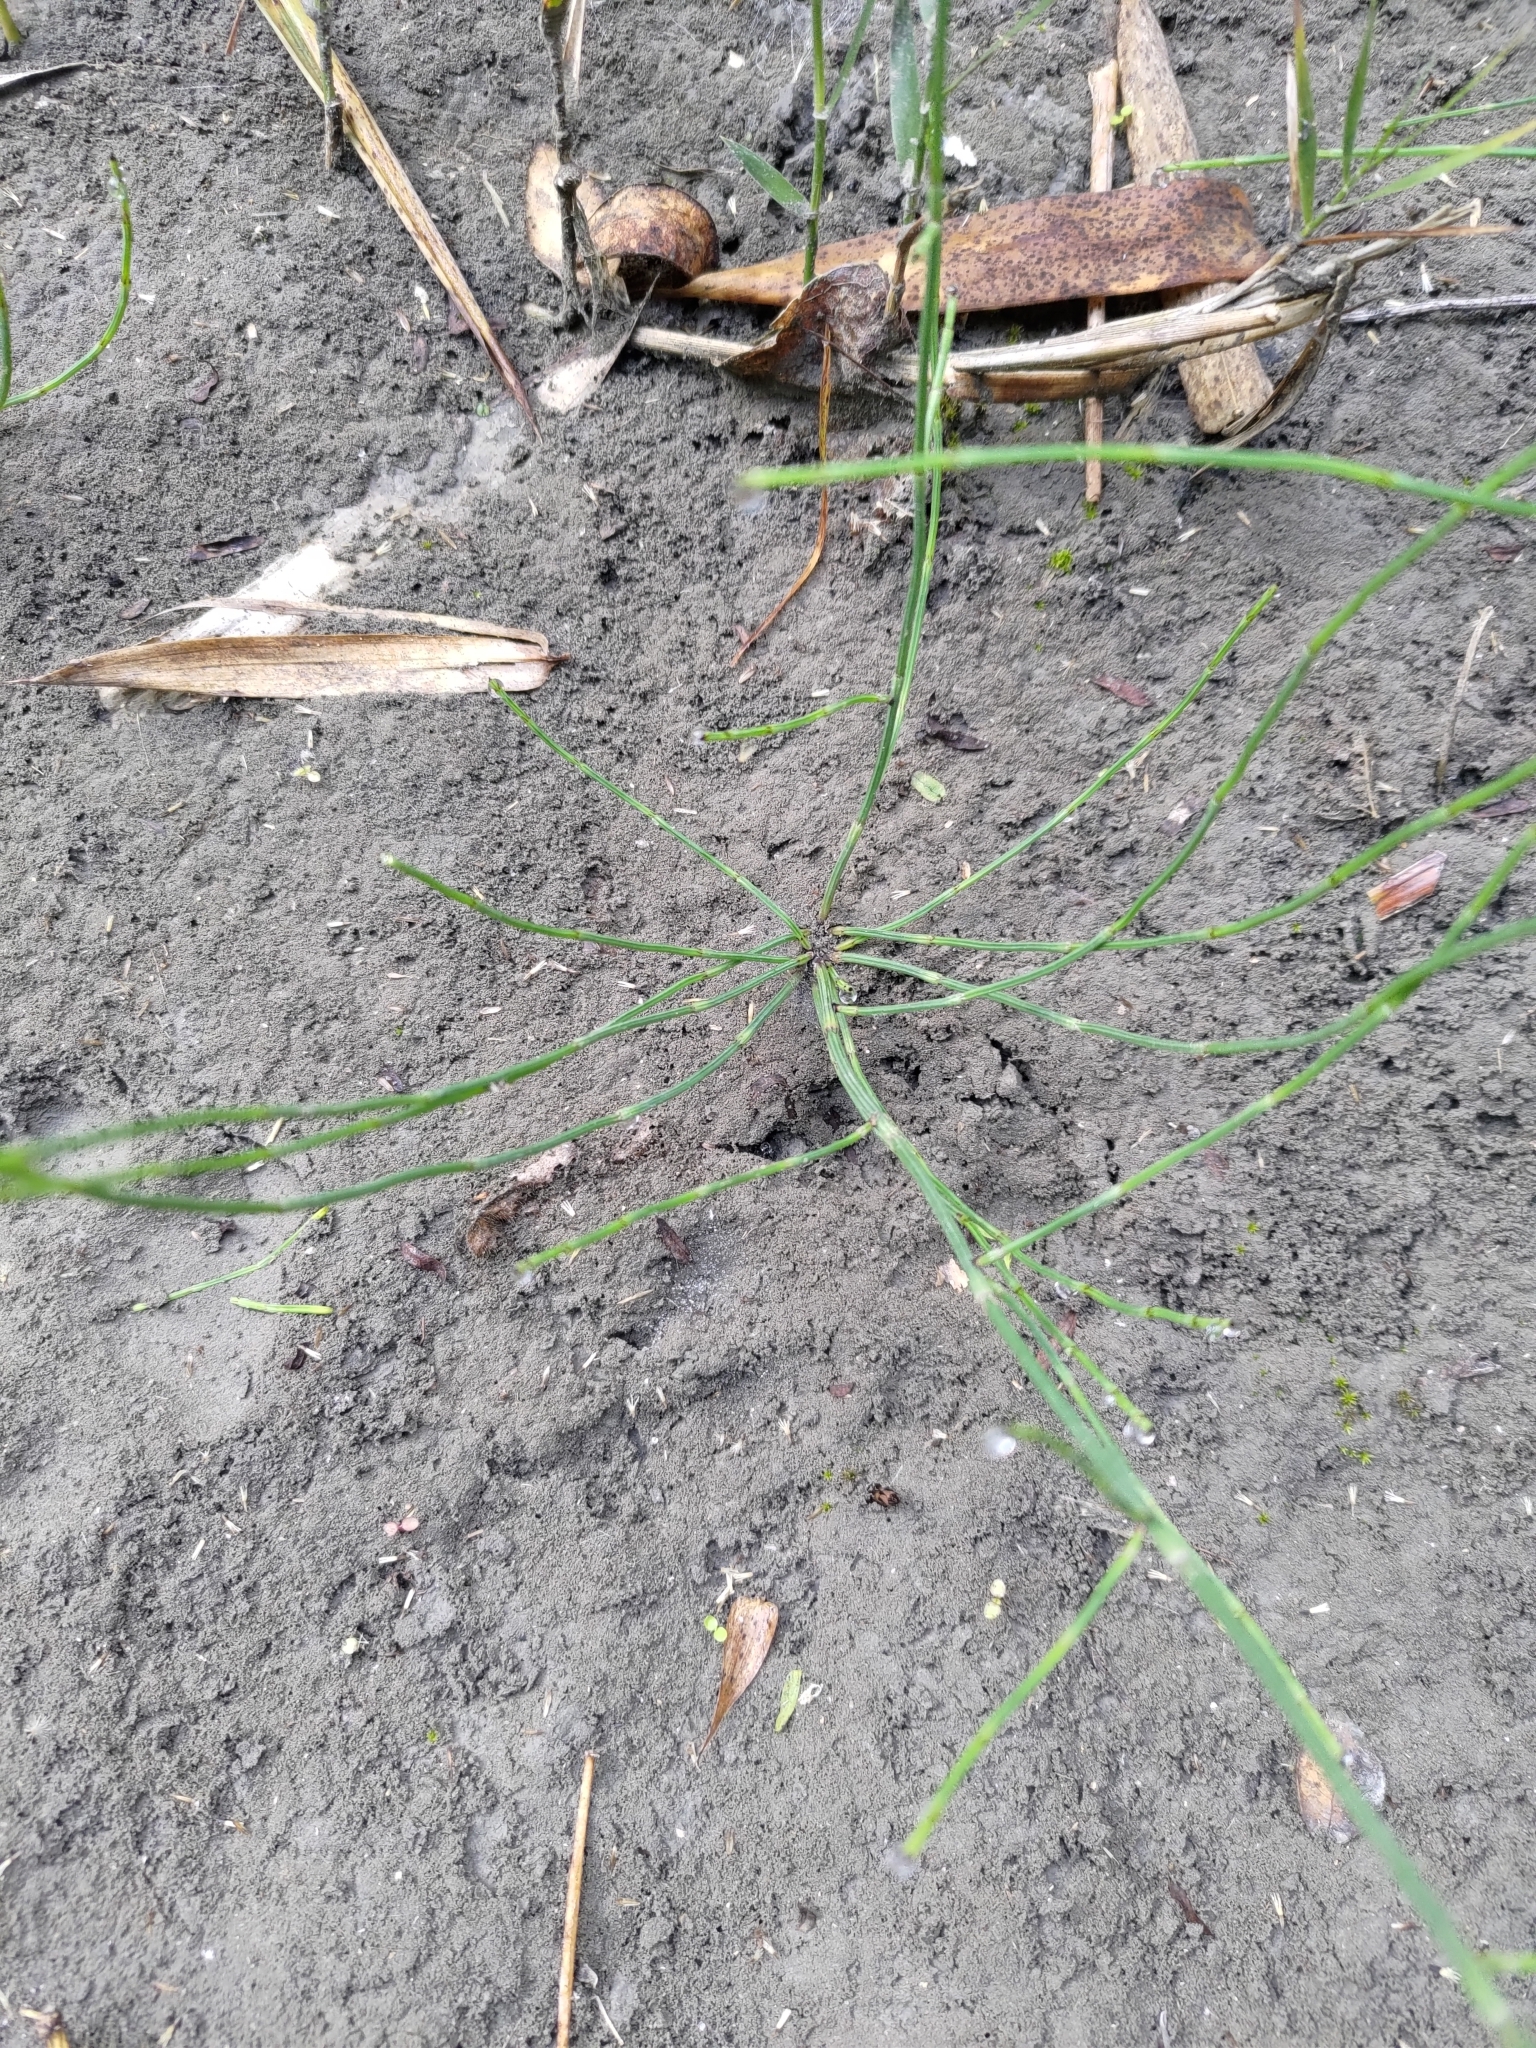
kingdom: Plantae
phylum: Tracheophyta
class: Polypodiopsida
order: Equisetales
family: Equisetaceae
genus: Equisetum
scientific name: Equisetum ramosissimum
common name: Branched horsetail
